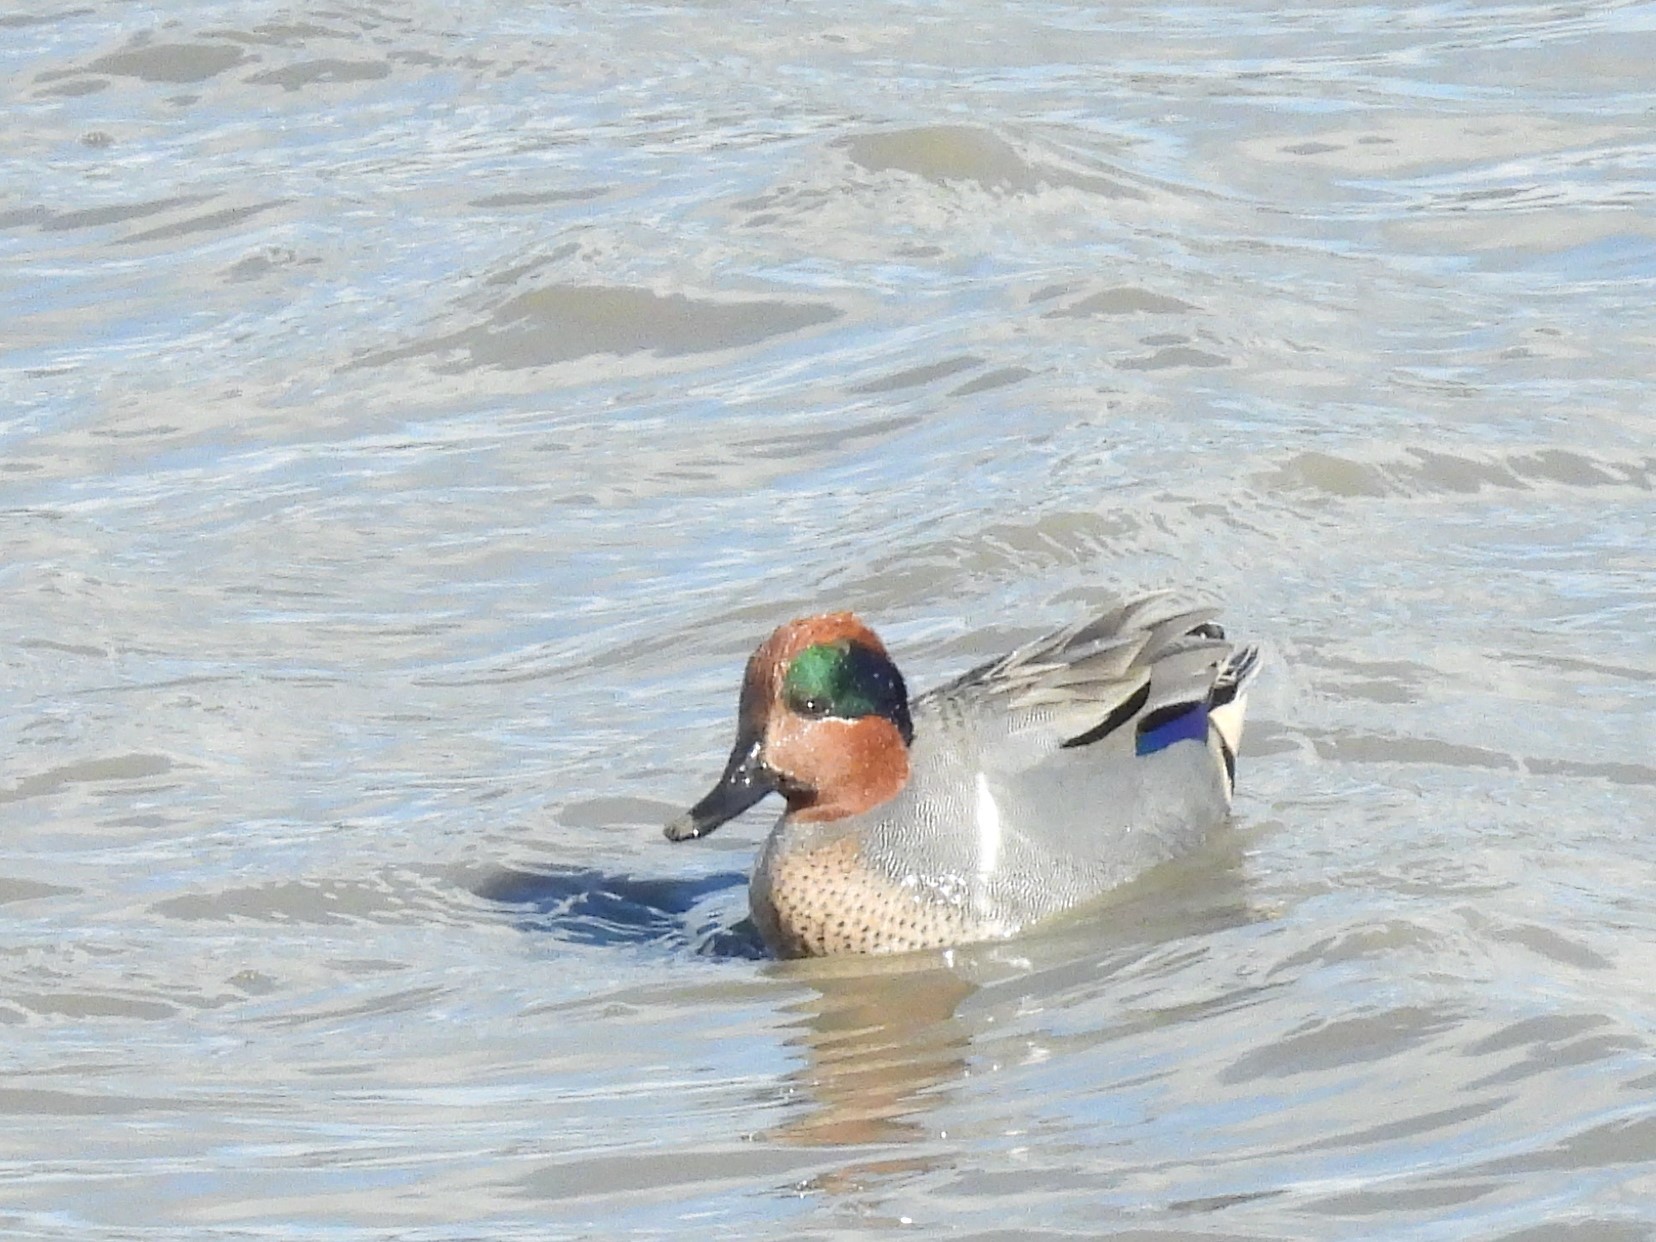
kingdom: Animalia
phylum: Chordata
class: Aves
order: Anseriformes
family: Anatidae
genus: Anas
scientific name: Anas crecca
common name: Eurasian teal
